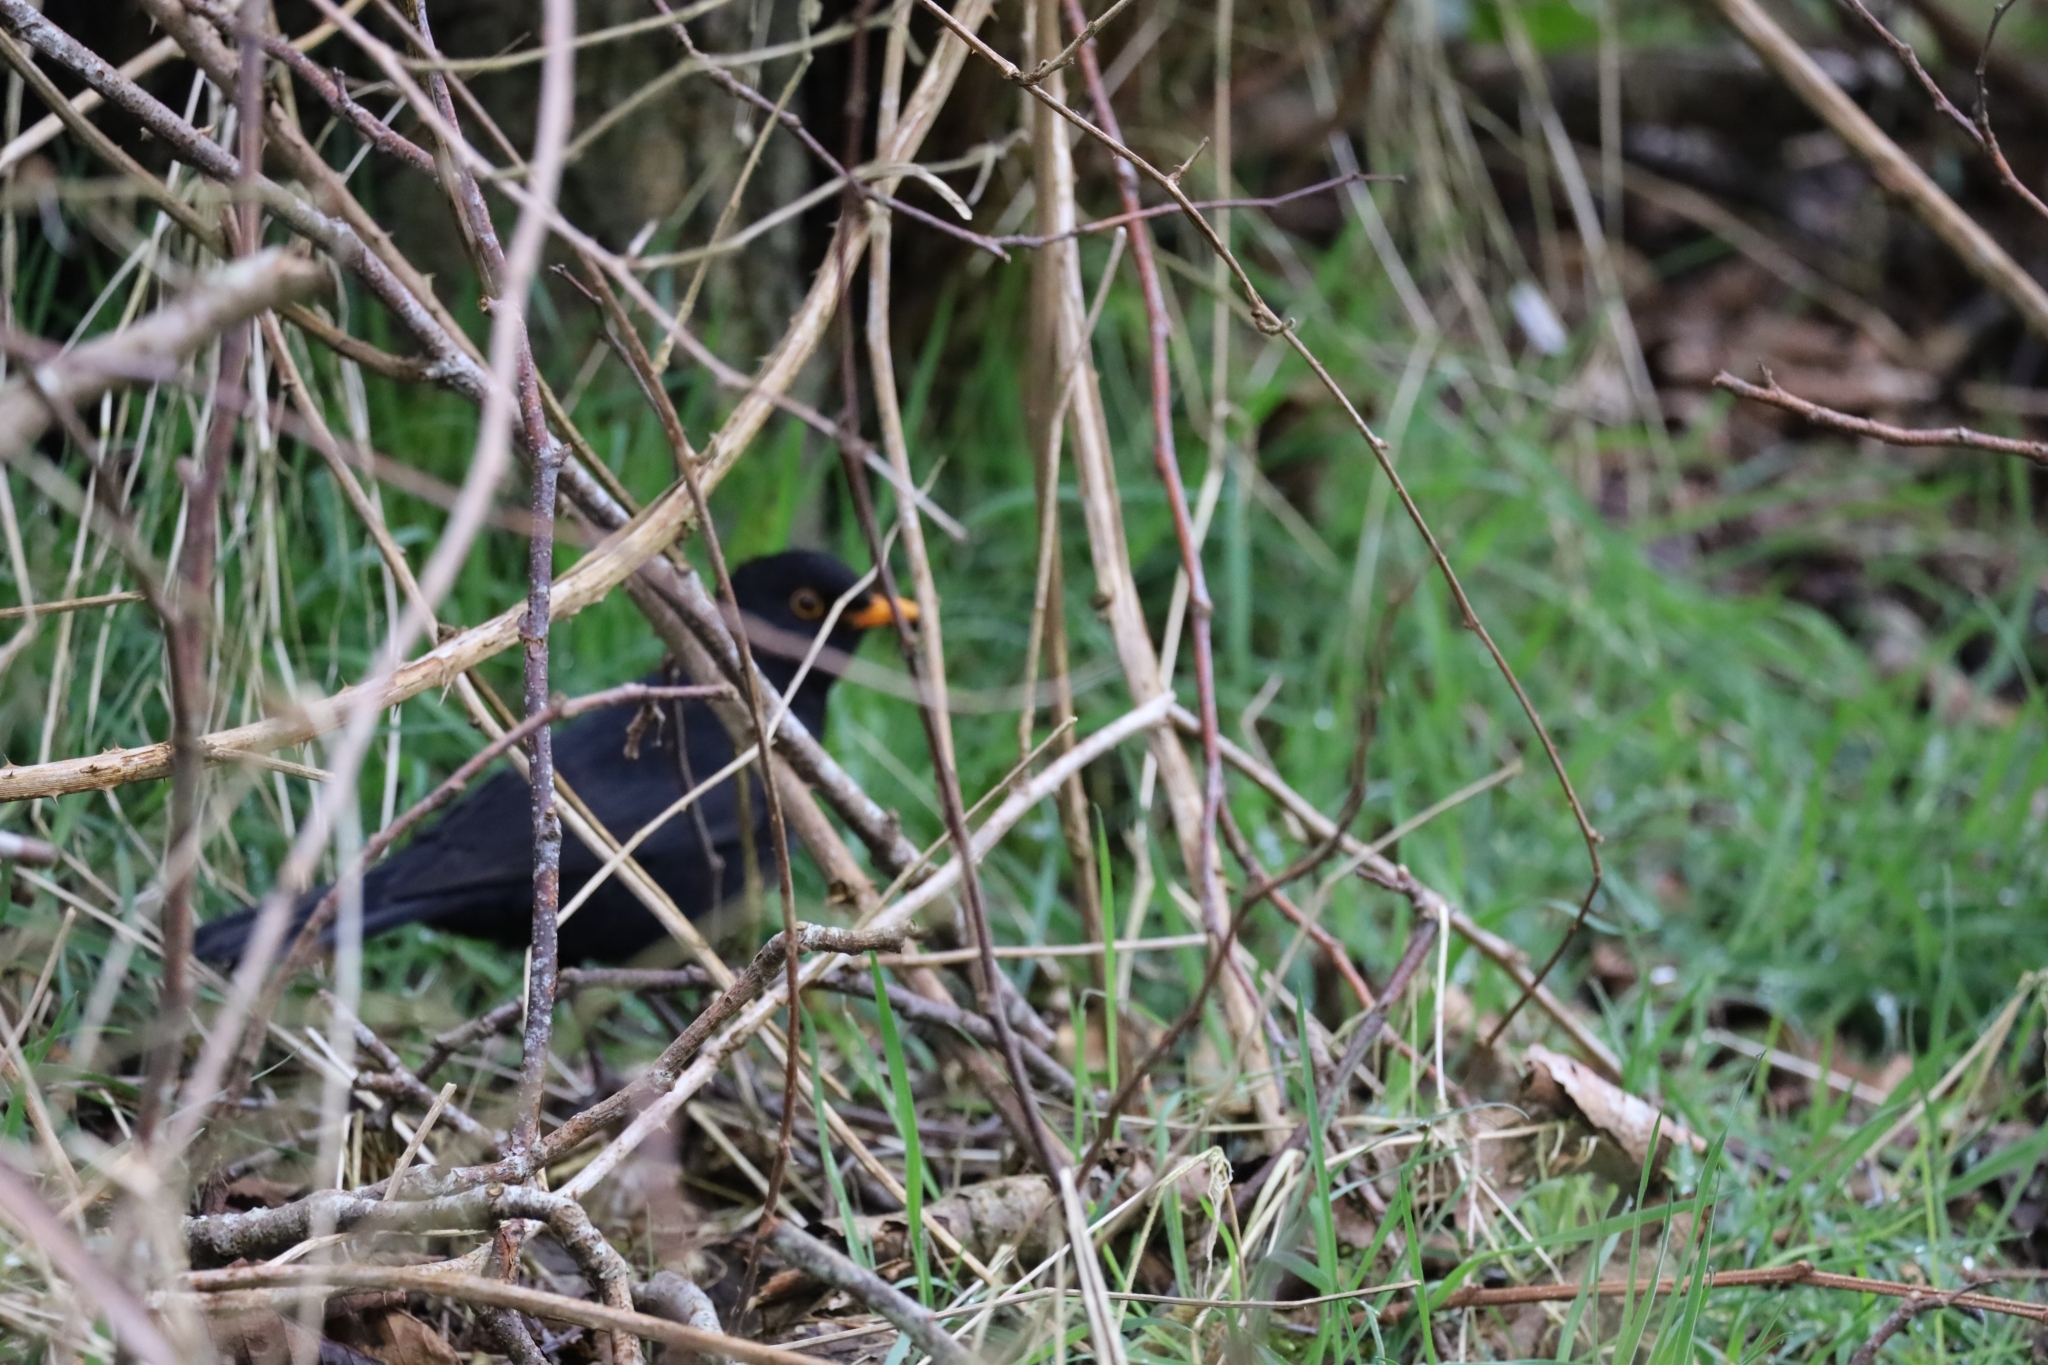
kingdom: Animalia
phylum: Chordata
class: Aves
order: Passeriformes
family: Turdidae
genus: Turdus
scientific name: Turdus merula
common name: Common blackbird
